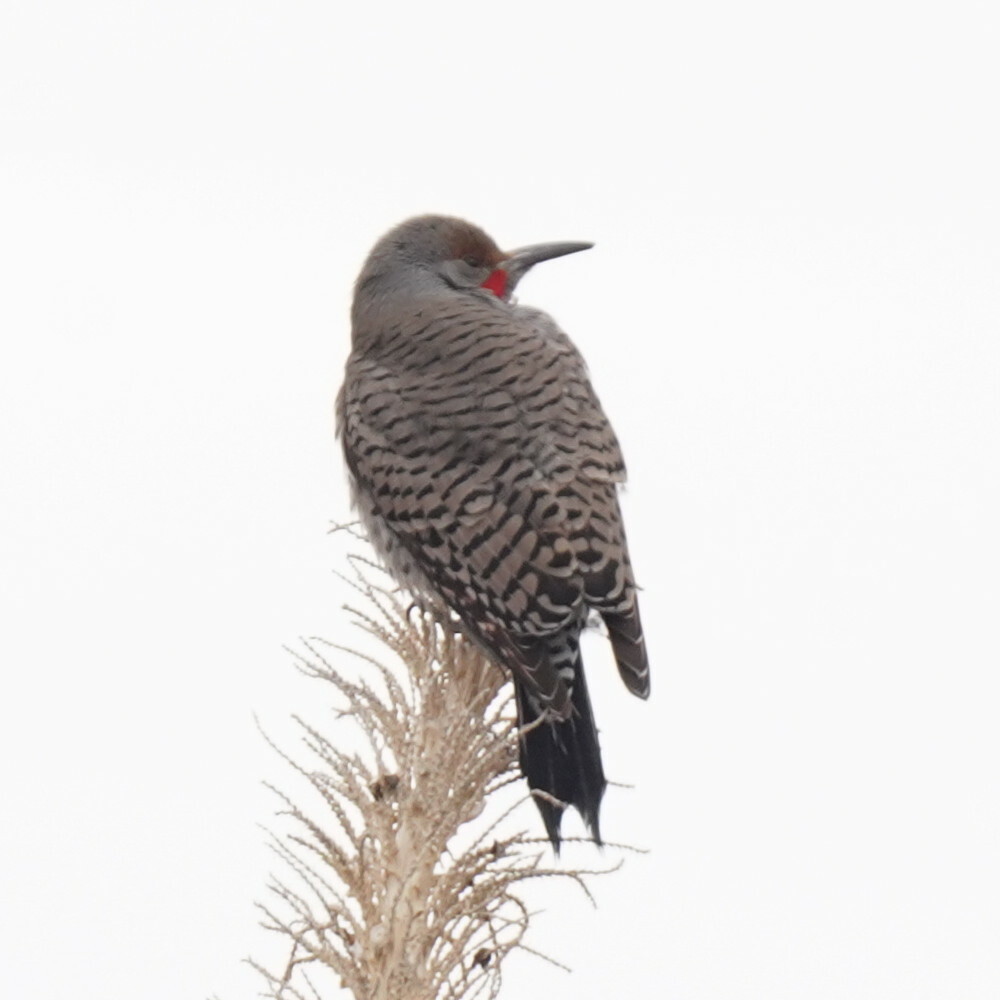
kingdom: Animalia
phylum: Chordata
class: Aves
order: Piciformes
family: Picidae
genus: Colaptes
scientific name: Colaptes auratus
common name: Northern flicker
